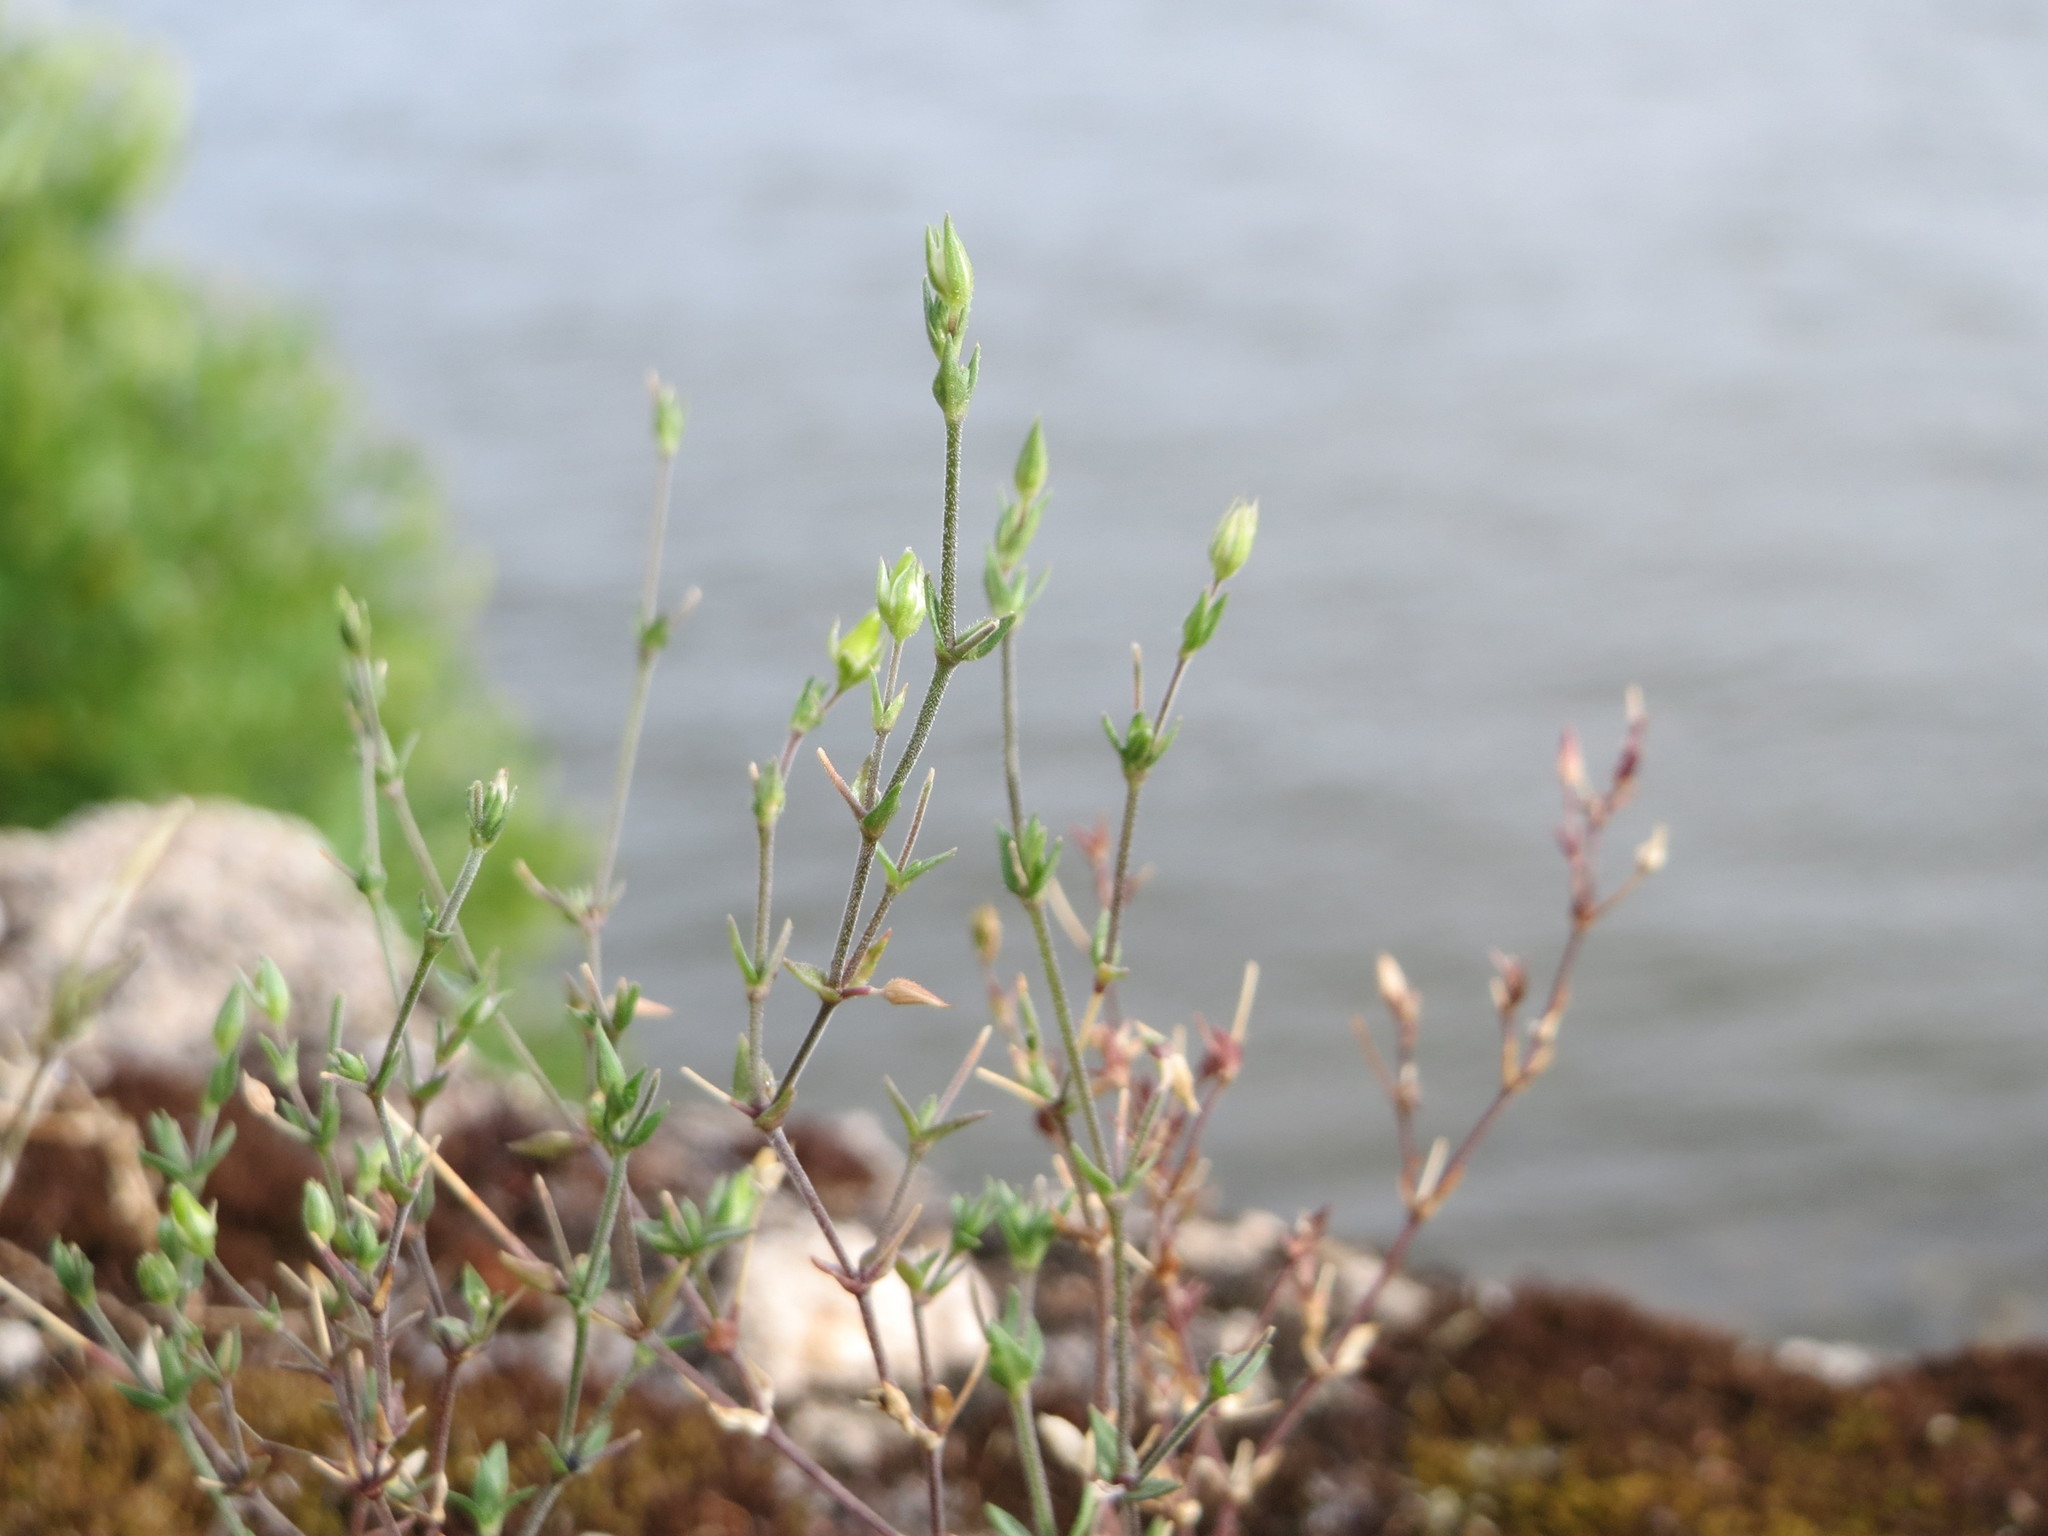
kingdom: Plantae
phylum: Tracheophyta
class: Magnoliopsida
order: Caryophyllales
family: Caryophyllaceae
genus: Arenaria
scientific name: Arenaria serpyllifolia
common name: Thyme-leaved sandwort
